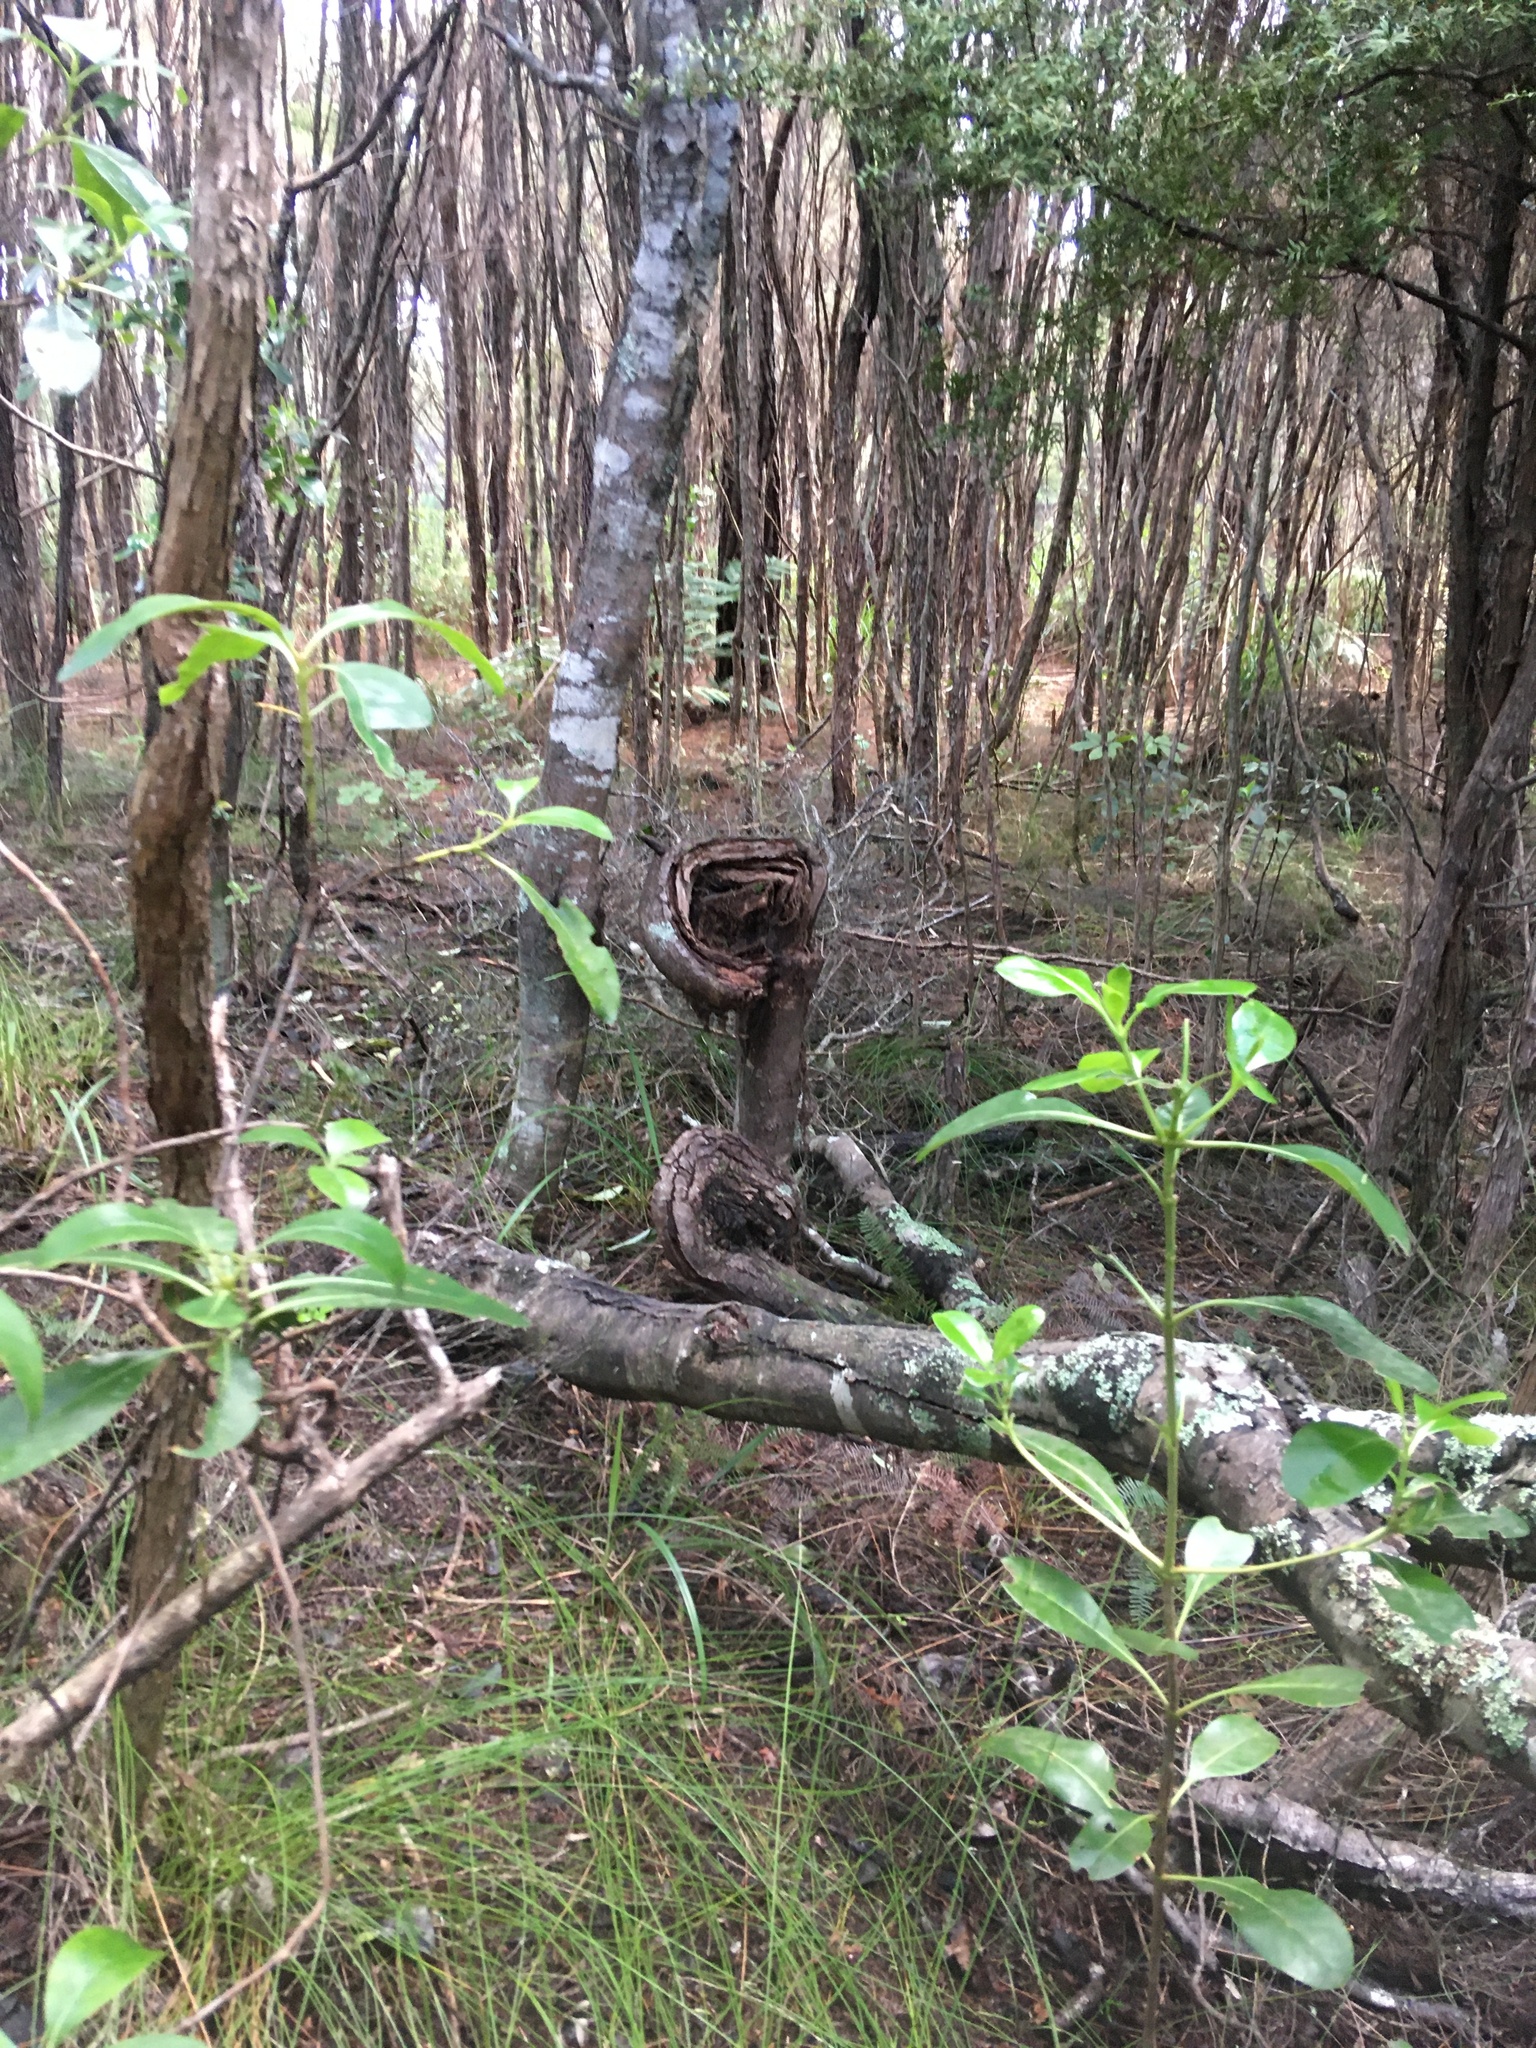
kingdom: Plantae
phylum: Tracheophyta
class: Magnoliopsida
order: Gentianales
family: Rubiaceae
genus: Coprosma
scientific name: Coprosma lucida
